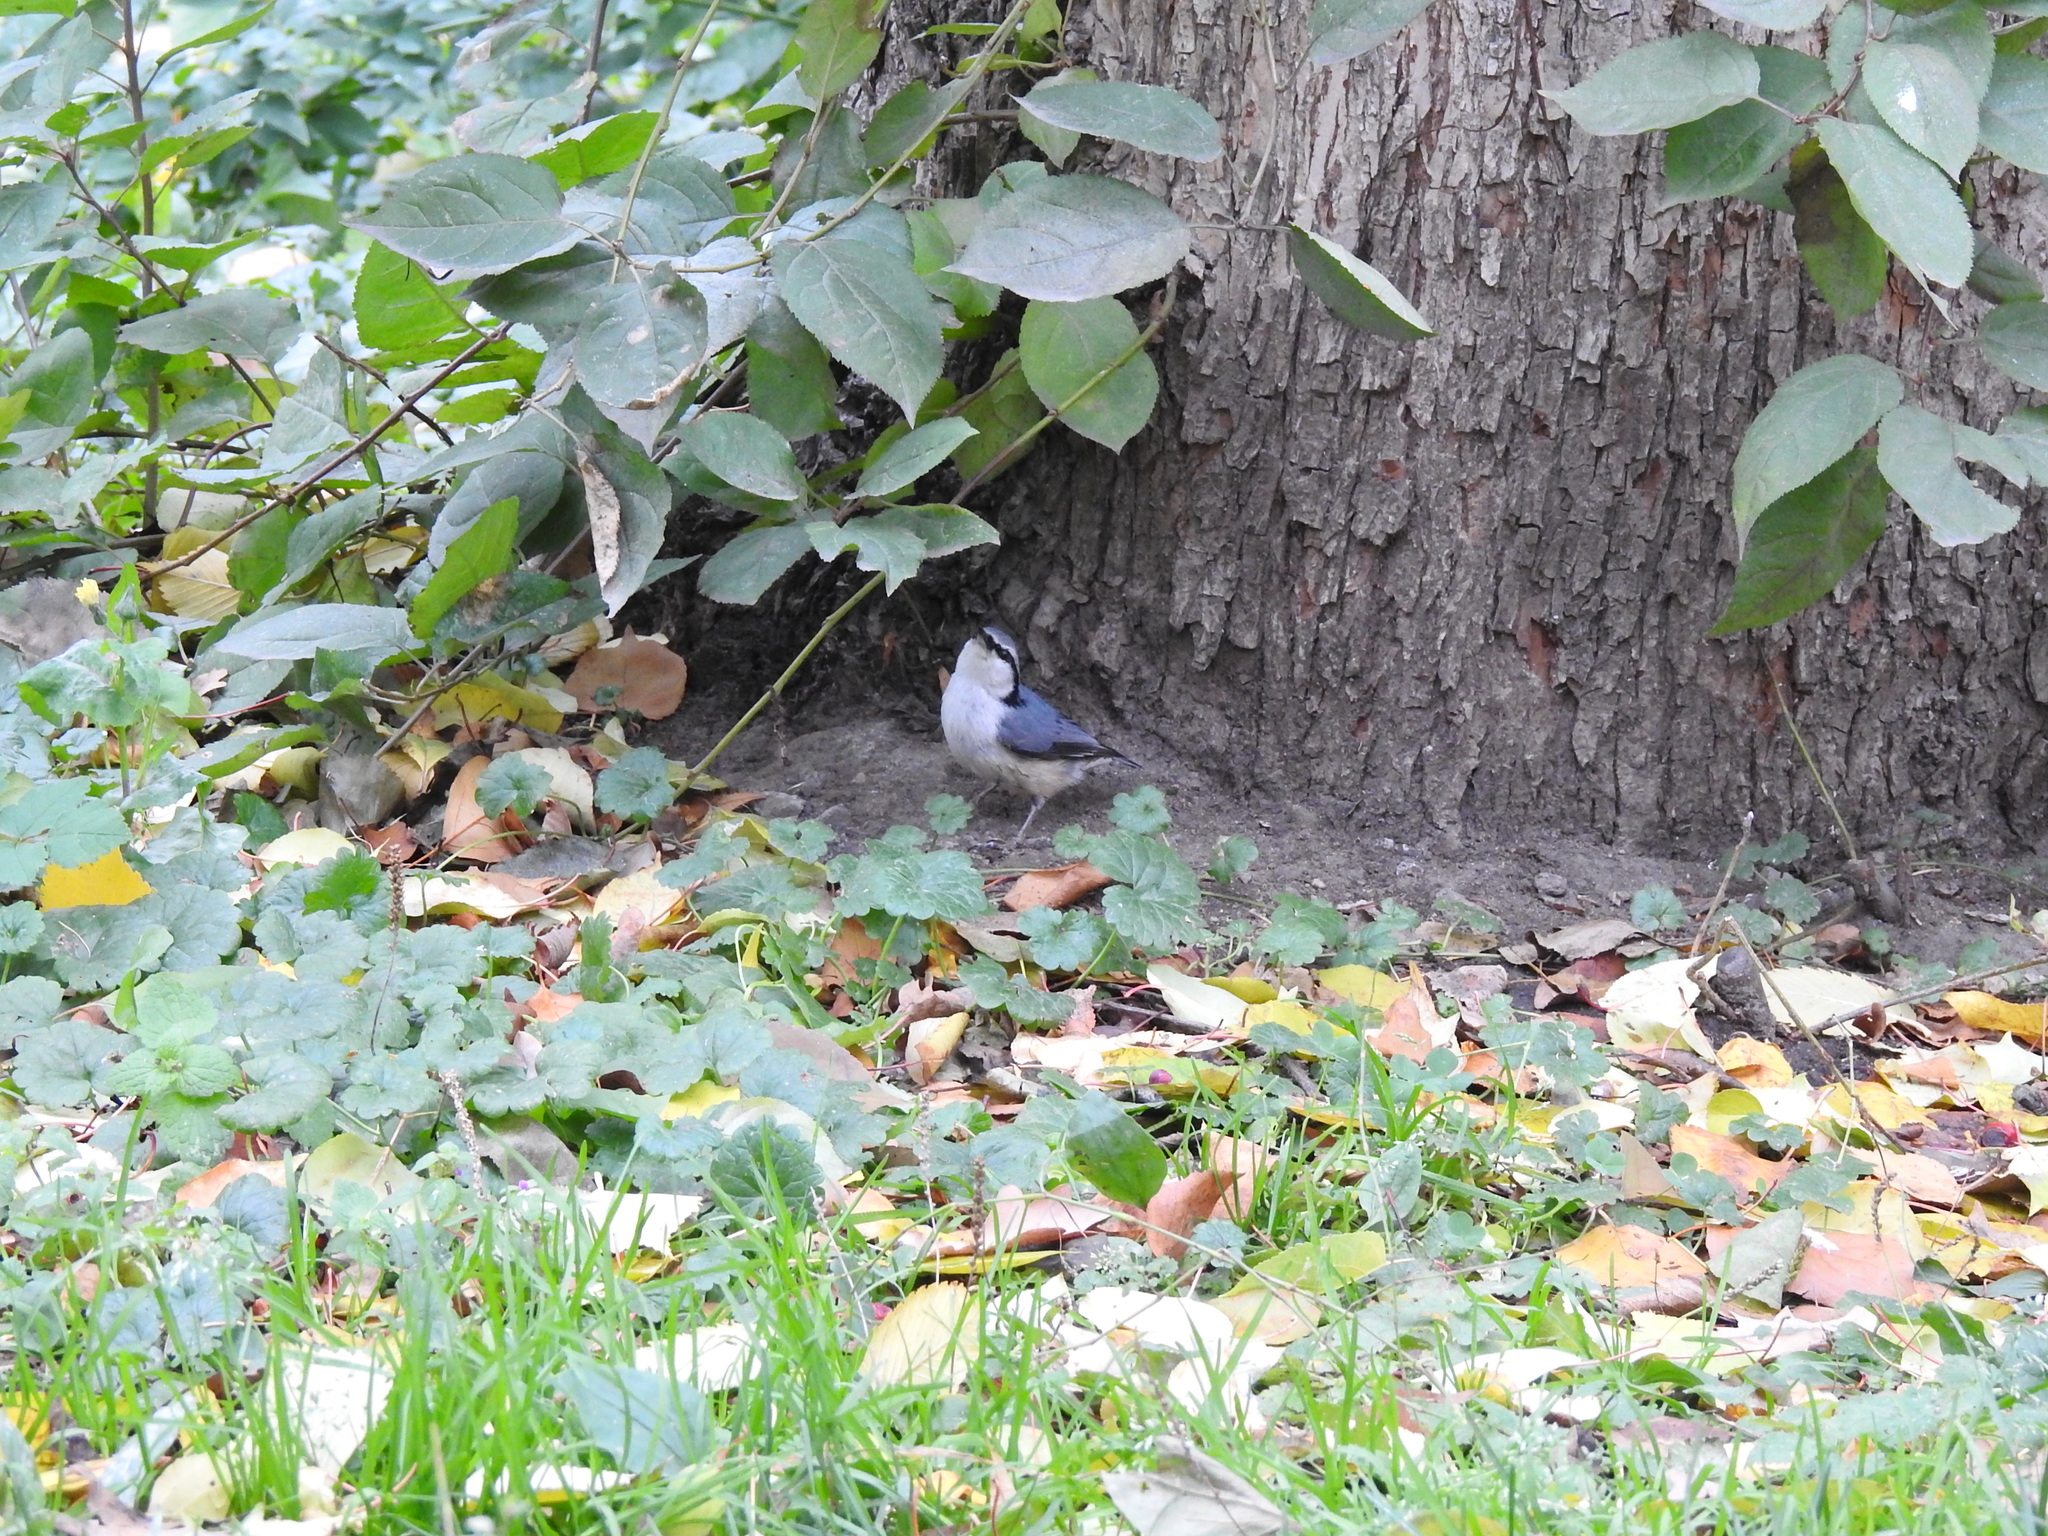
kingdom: Animalia
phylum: Chordata
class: Aves
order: Passeriformes
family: Sittidae
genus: Sitta
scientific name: Sitta europaea
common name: Eurasian nuthatch
